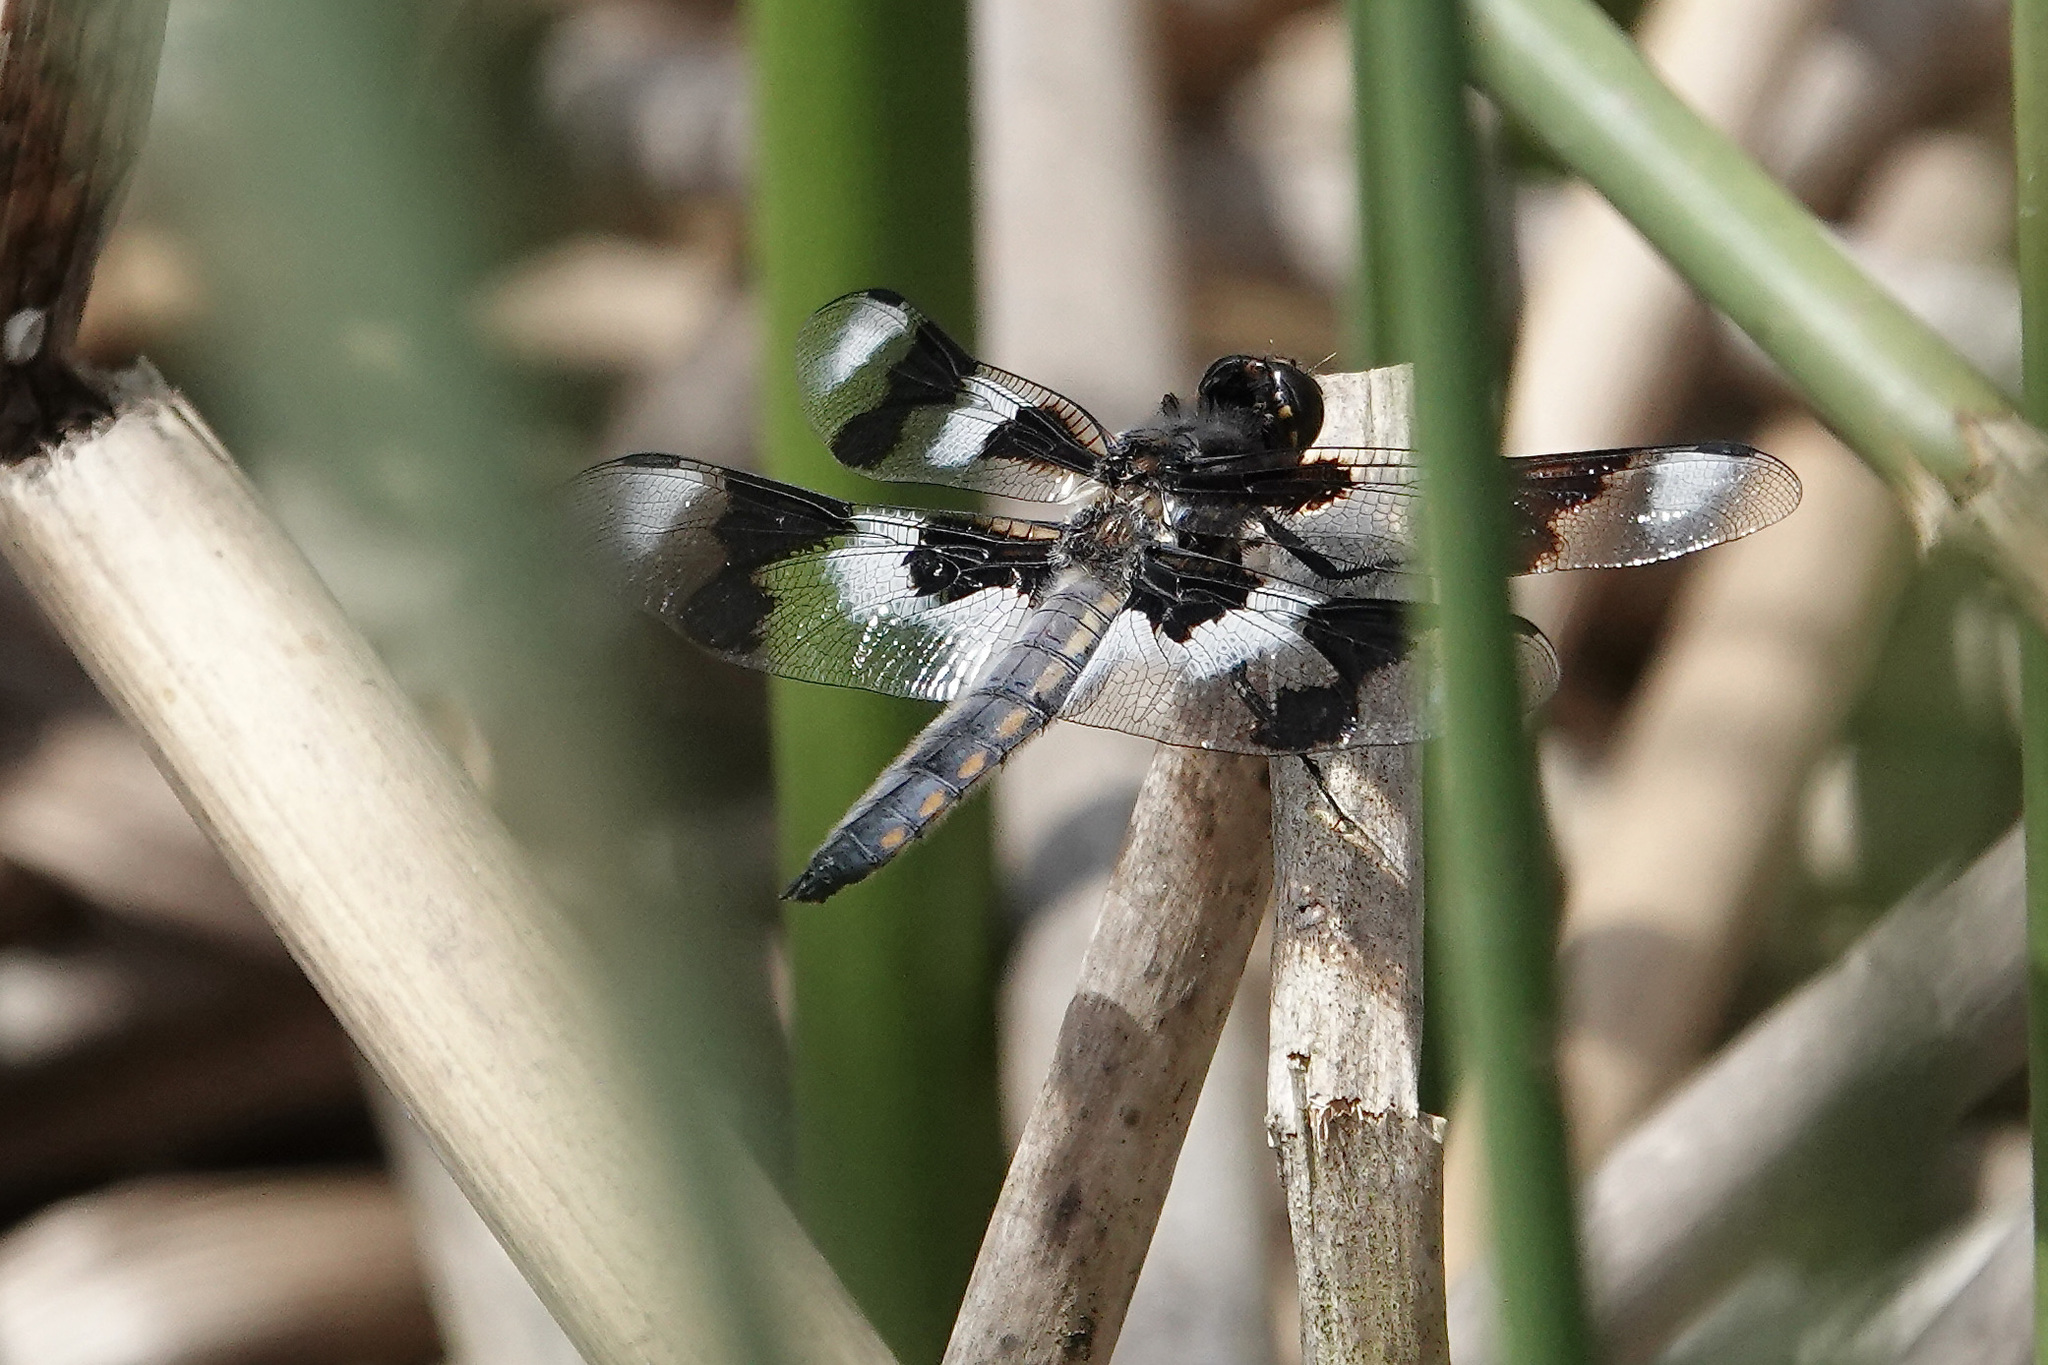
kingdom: Animalia
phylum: Arthropoda
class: Insecta
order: Odonata
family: Libellulidae
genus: Libellula
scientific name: Libellula forensis
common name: Eight-spotted skimmer
